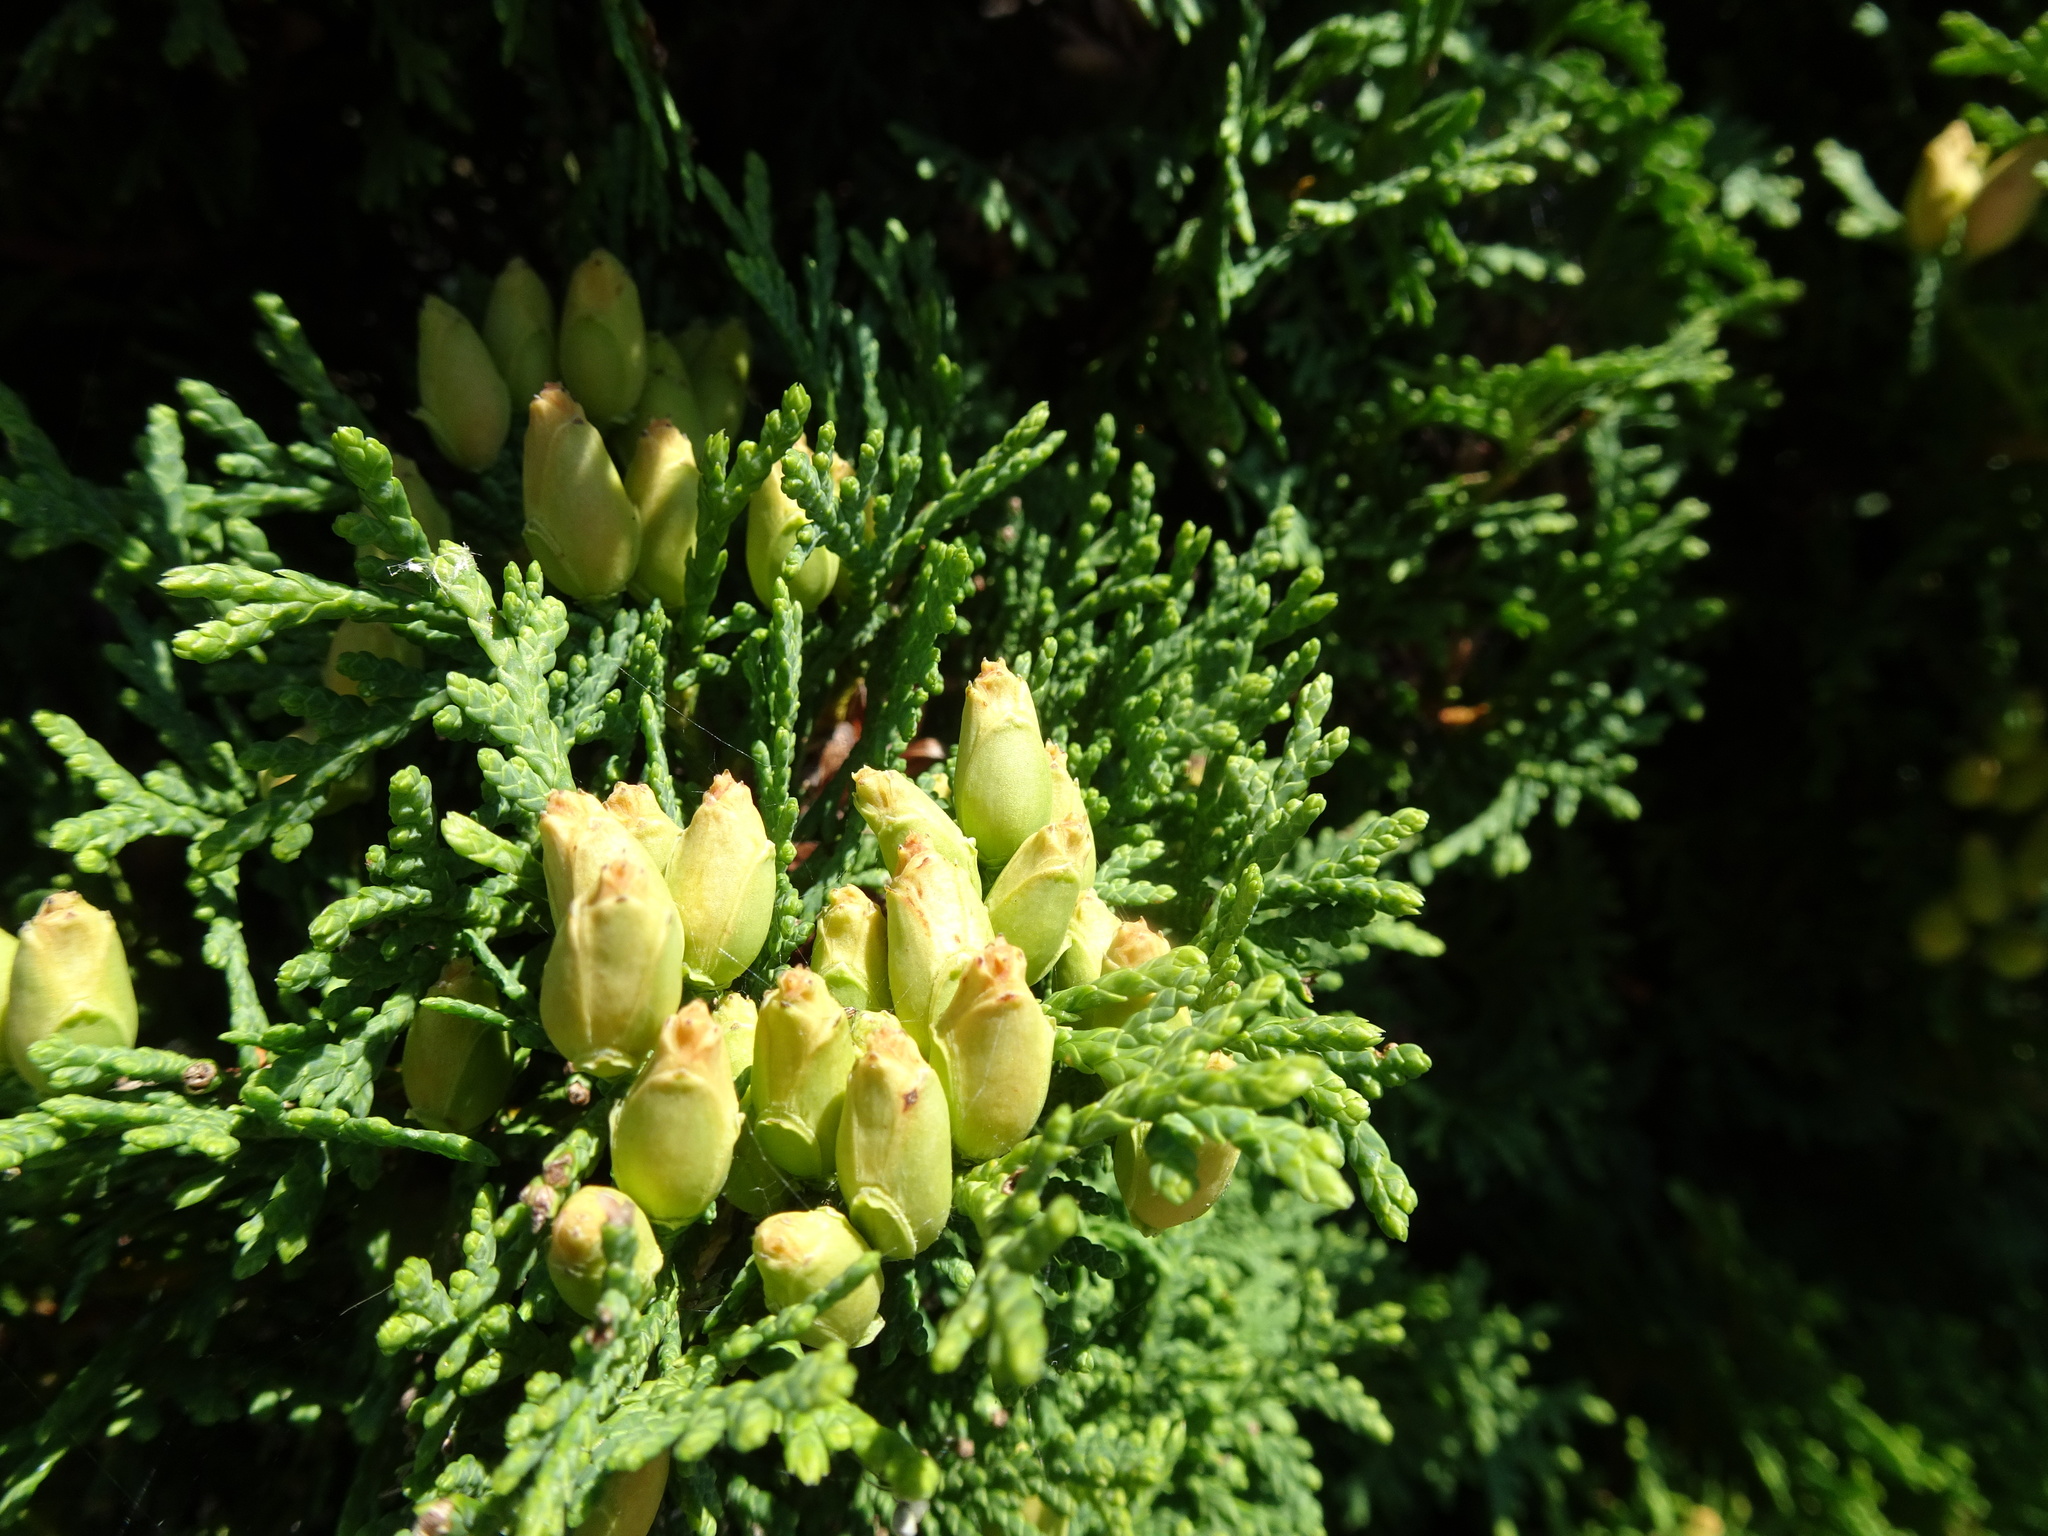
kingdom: Plantae
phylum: Tracheophyta
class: Pinopsida
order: Pinales
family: Cupressaceae
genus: Thuja
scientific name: Thuja occidentalis
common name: Northern white-cedar
